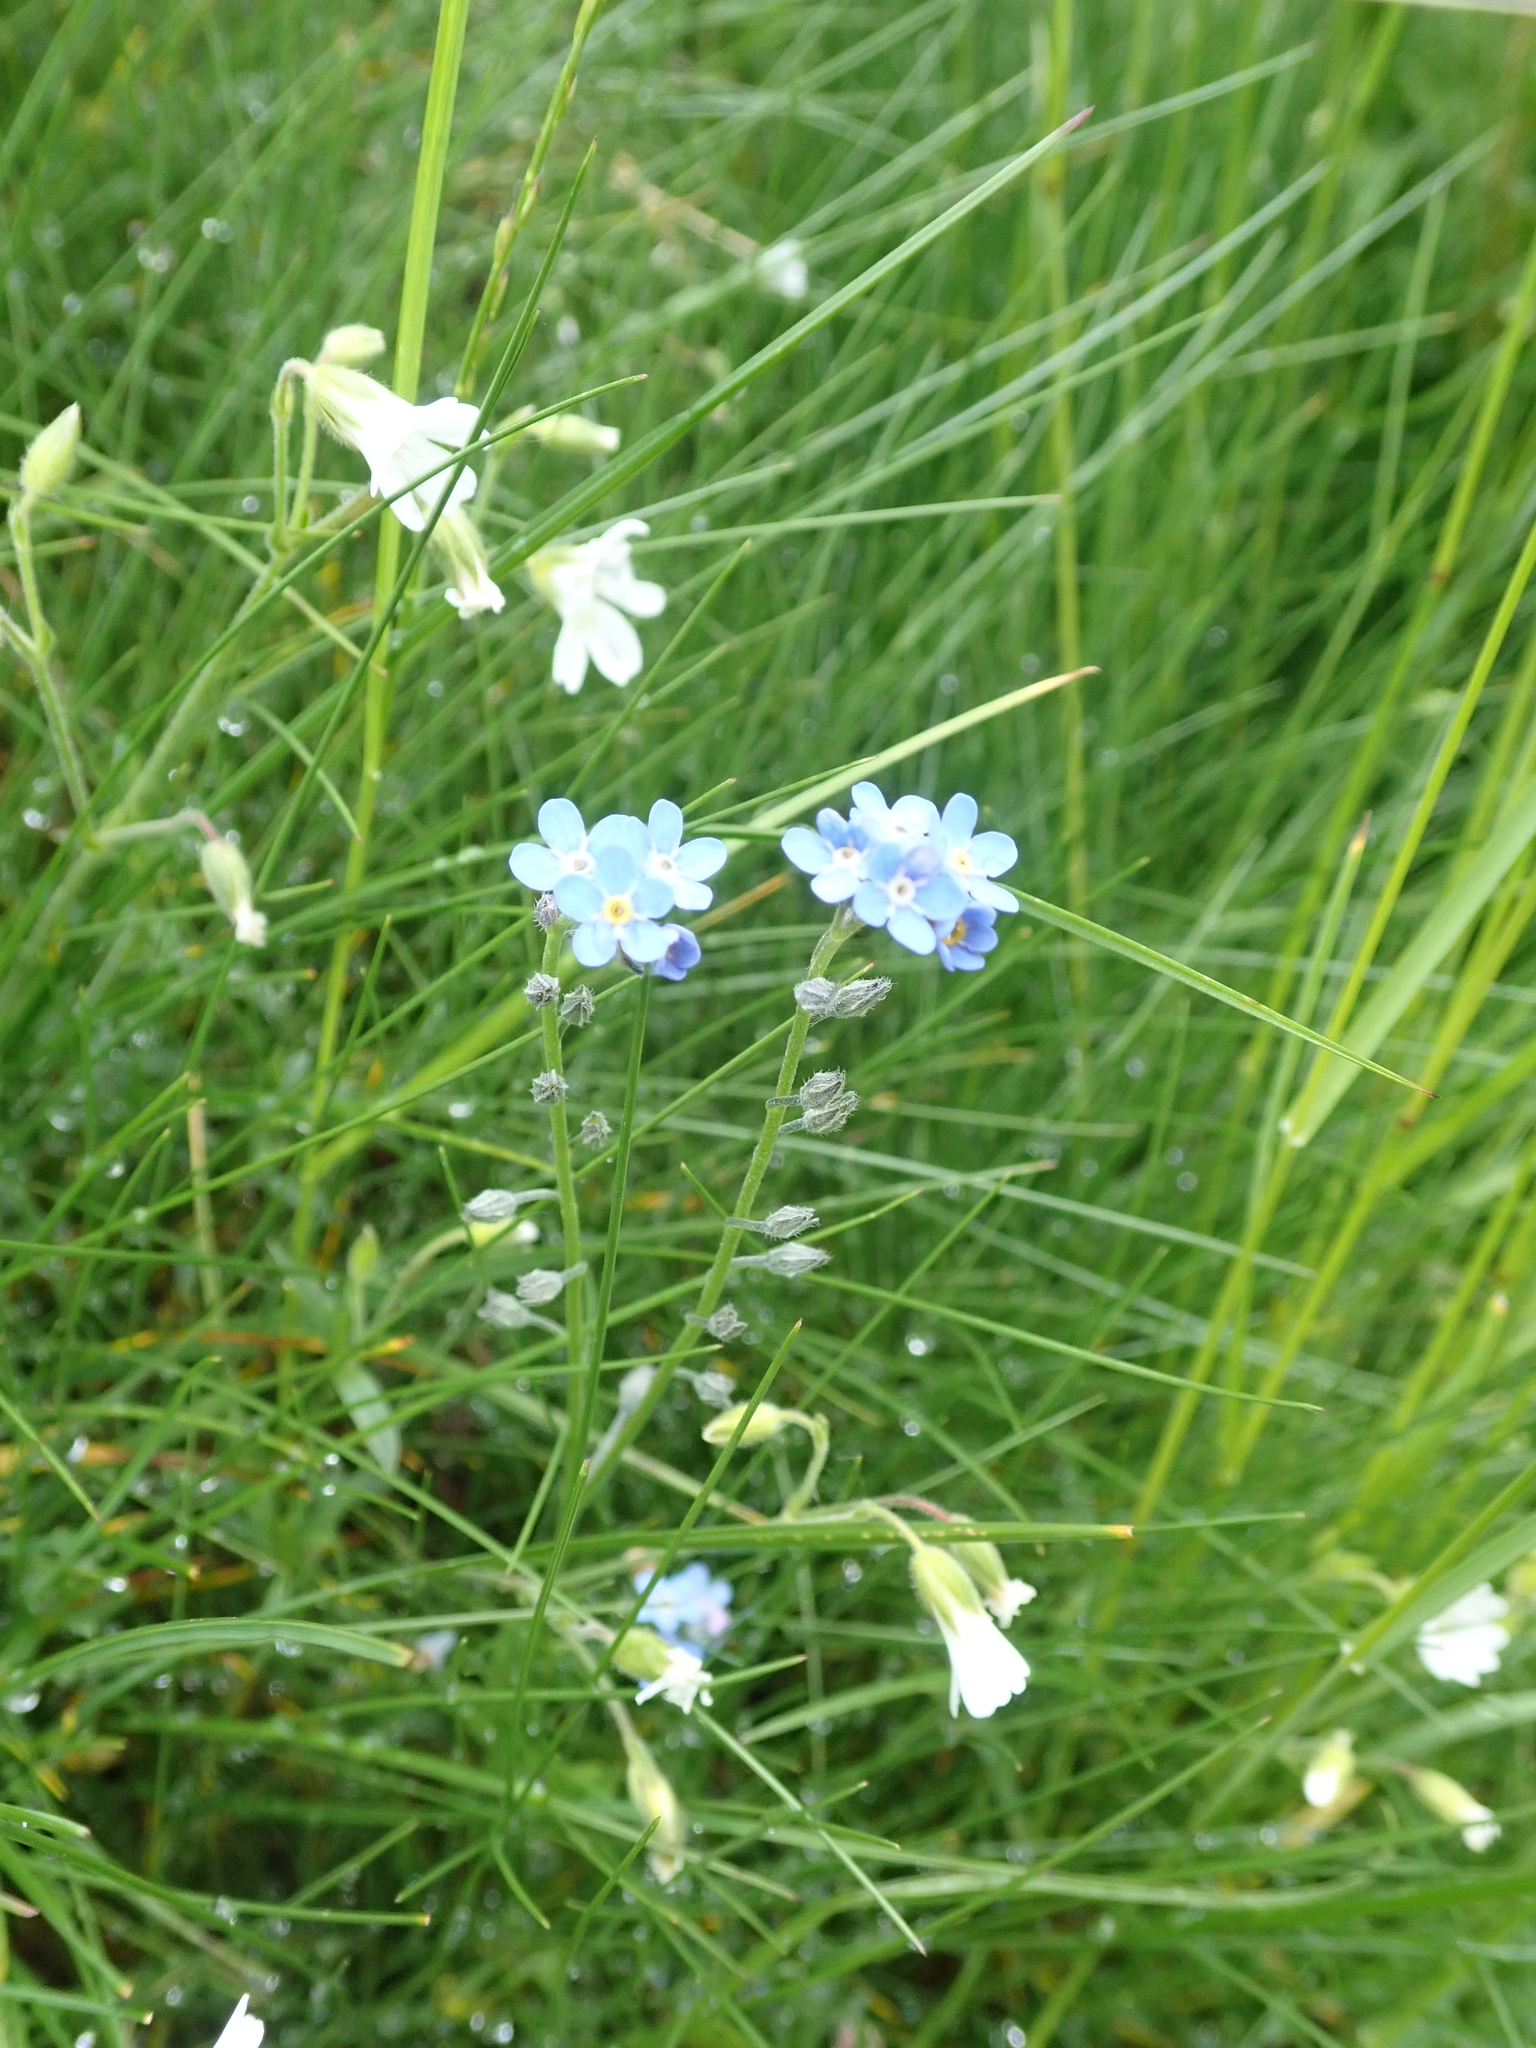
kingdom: Plantae
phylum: Tracheophyta
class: Magnoliopsida
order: Boraginales
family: Boraginaceae
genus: Myosotis
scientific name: Myosotis alpestris
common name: Alpine forget-me-not
